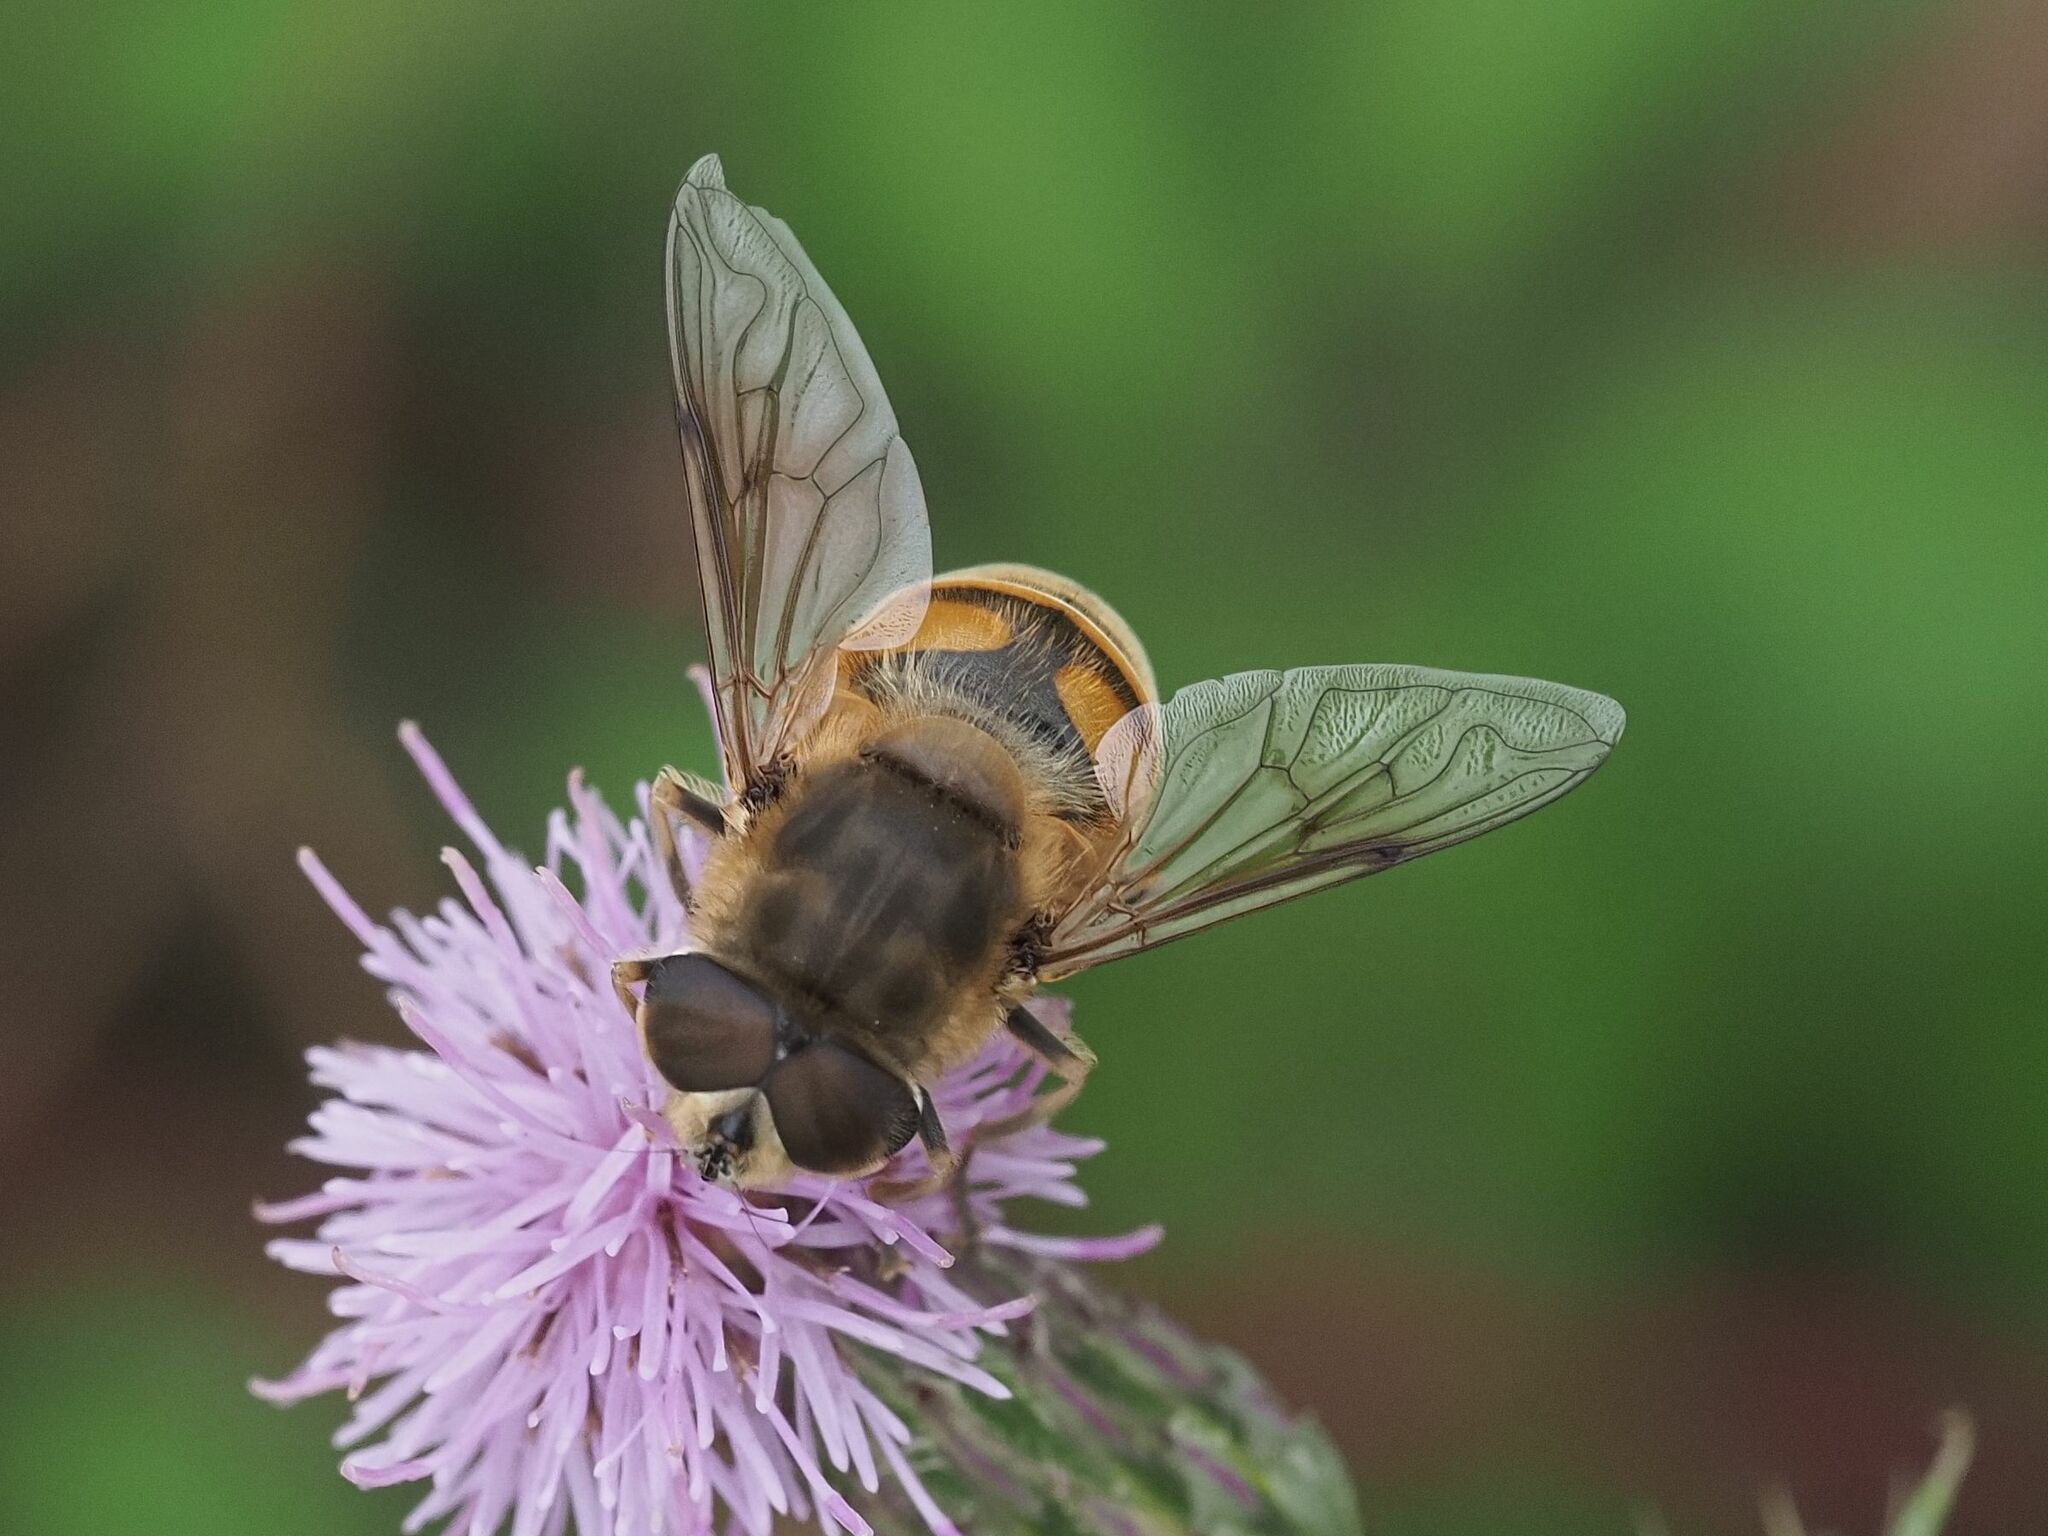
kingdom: Animalia
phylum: Arthropoda
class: Insecta
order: Diptera
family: Syrphidae
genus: Eristalis
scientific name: Eristalis tenax
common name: Drone fly
